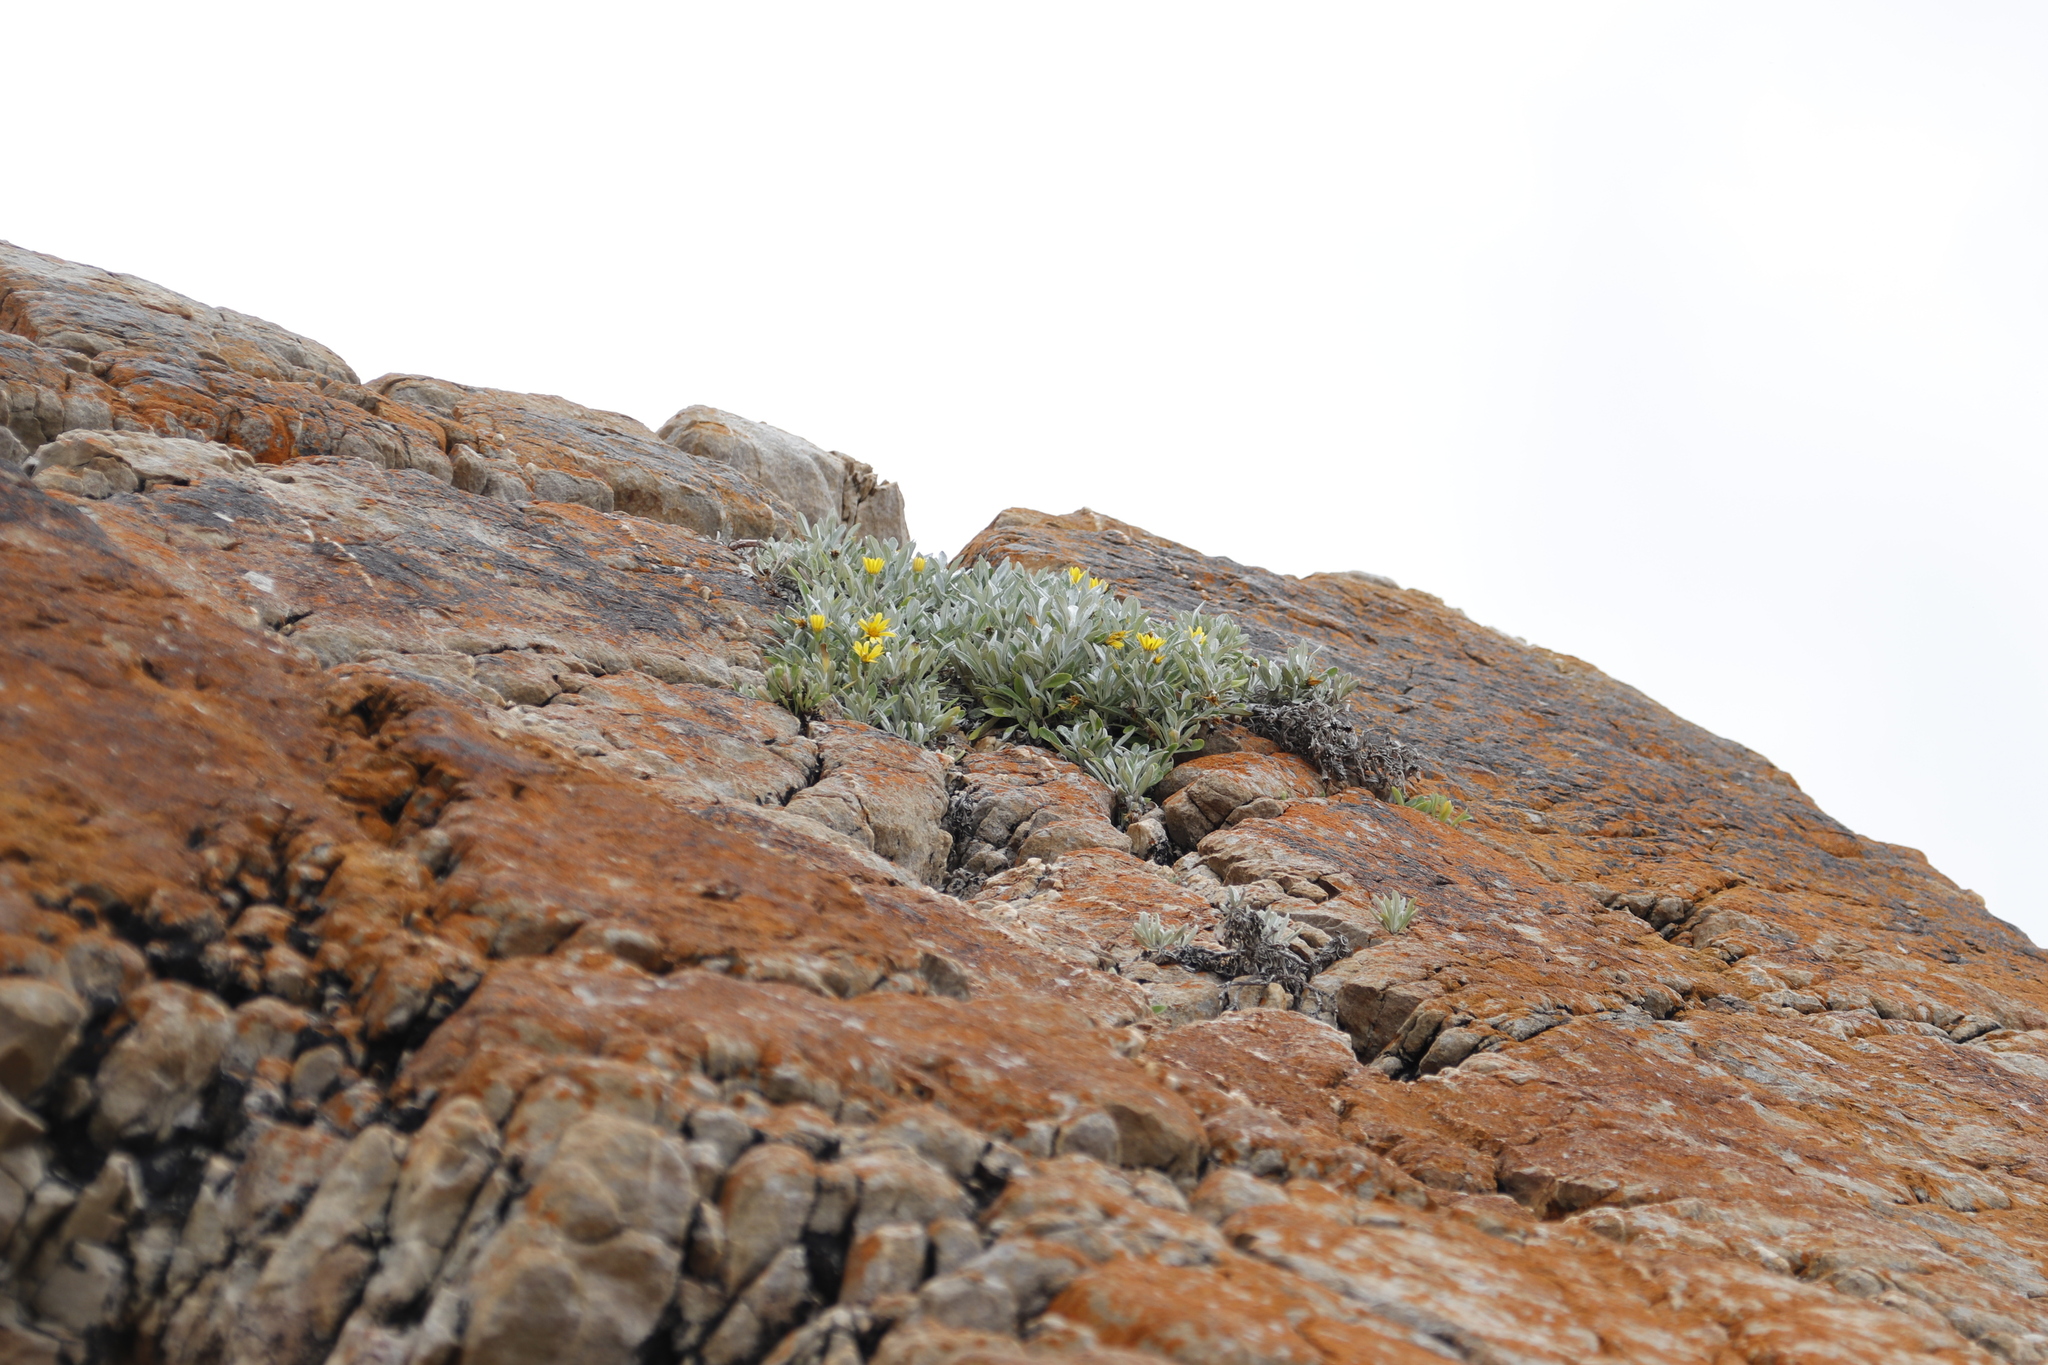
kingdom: Plantae
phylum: Tracheophyta
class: Magnoliopsida
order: Asterales
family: Asteraceae
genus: Gazania
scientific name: Gazania rigens
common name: Treasureflower
